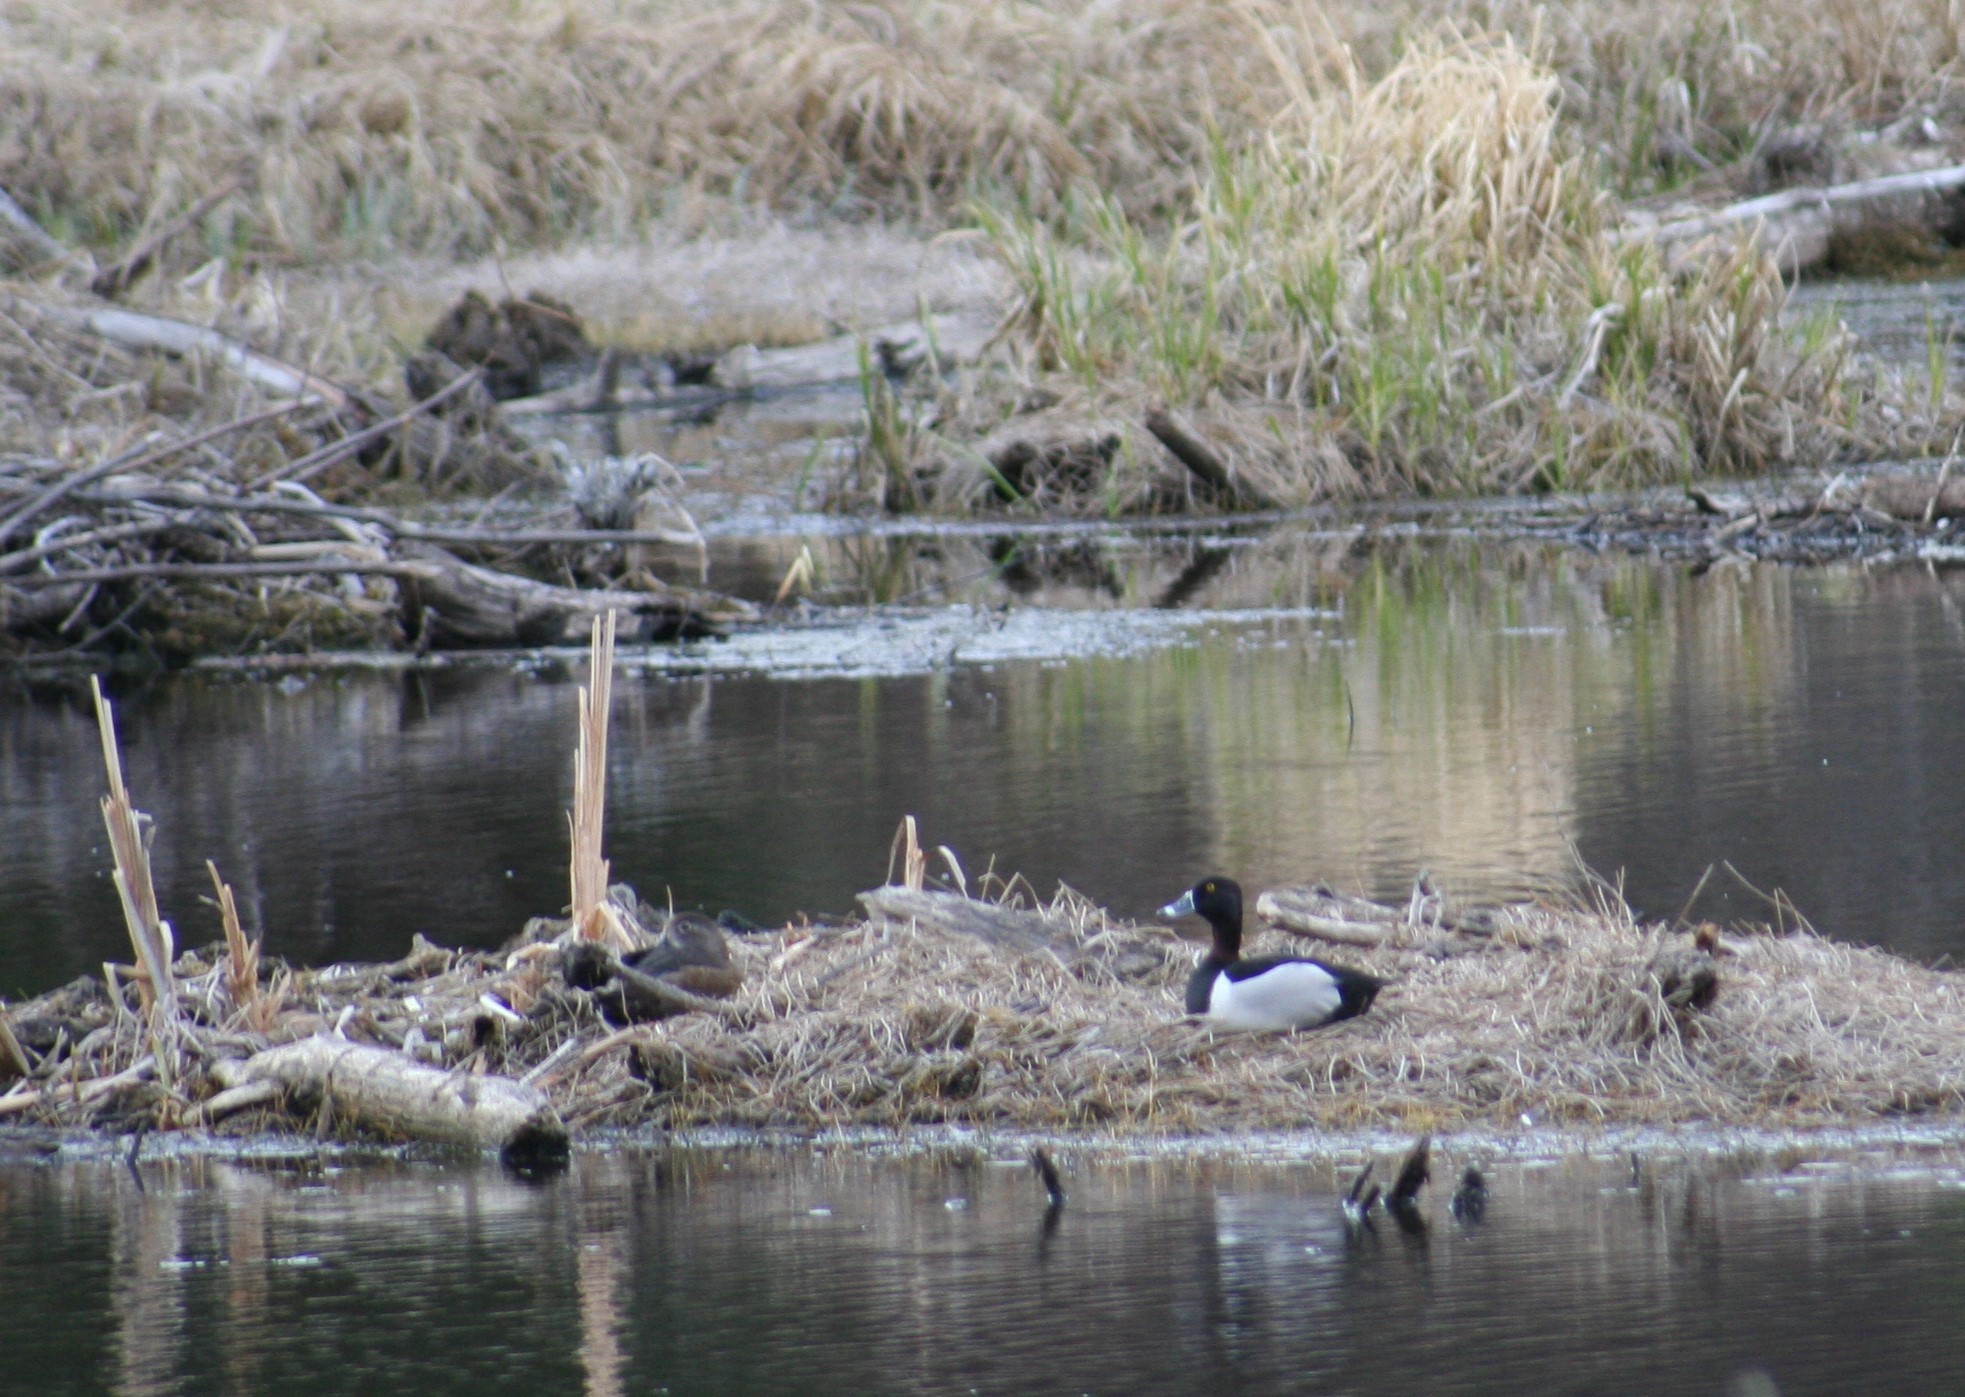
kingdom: Animalia
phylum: Chordata
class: Aves
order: Anseriformes
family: Anatidae
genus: Aythya
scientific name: Aythya collaris
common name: Ring-necked duck
